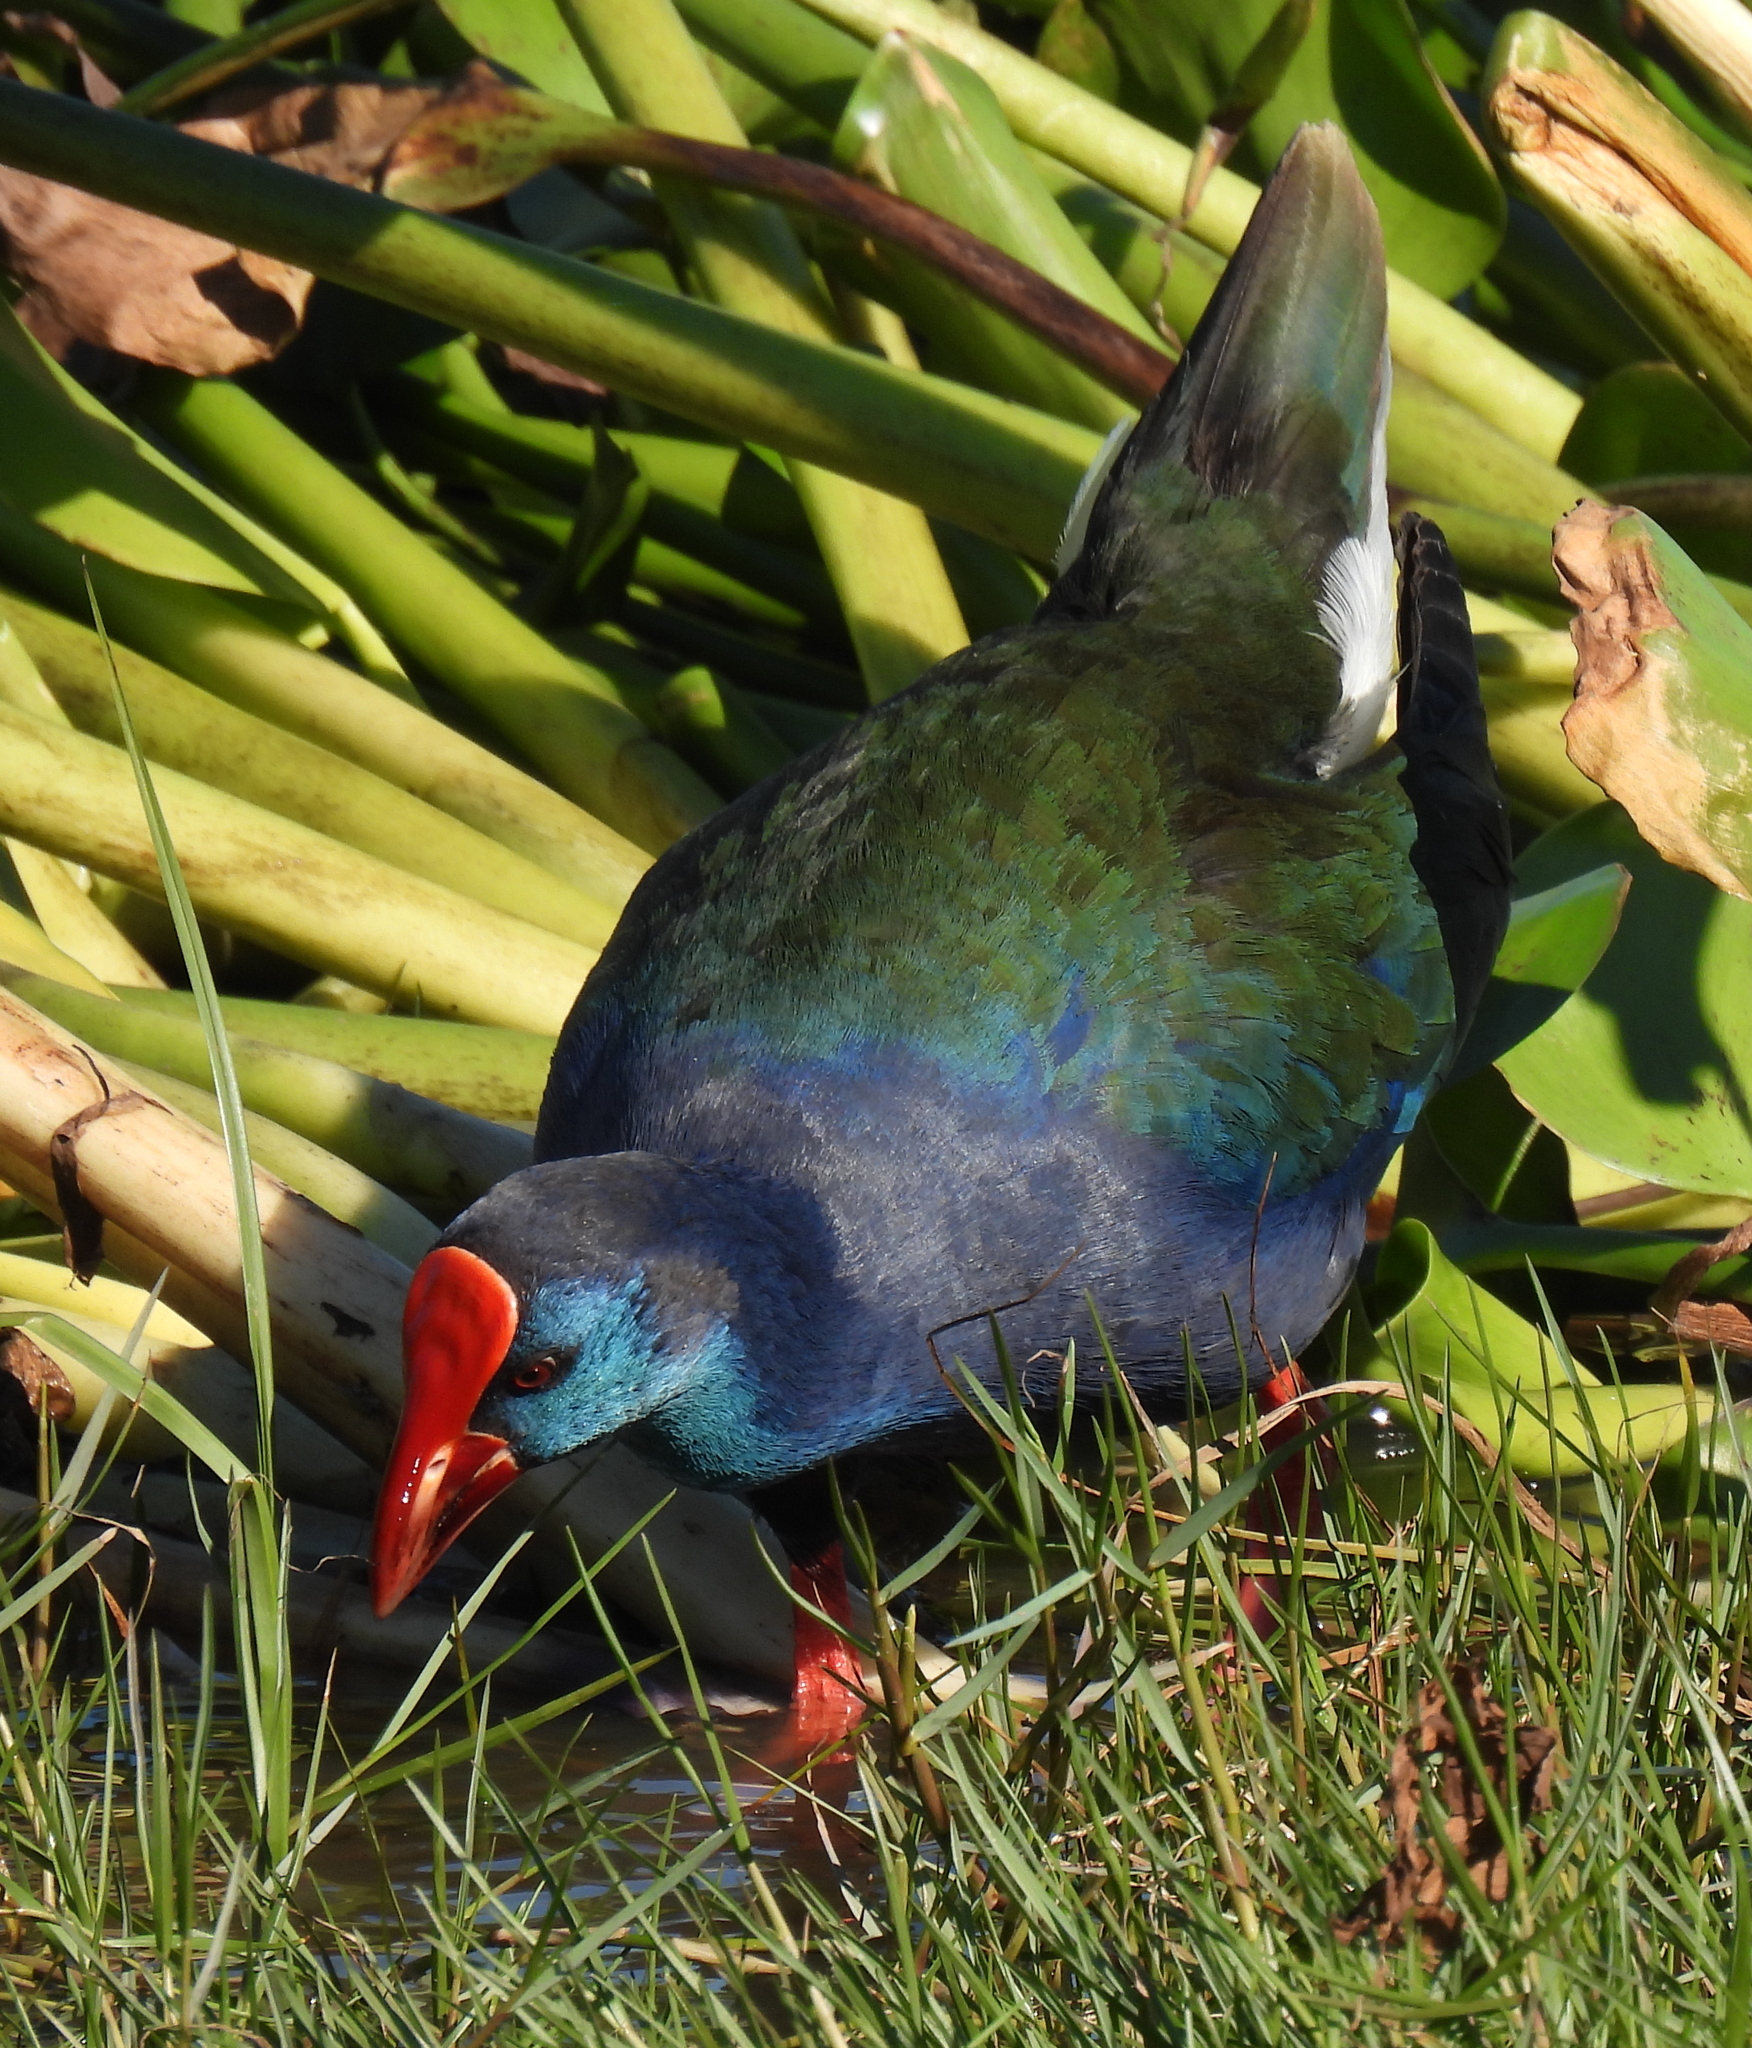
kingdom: Animalia
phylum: Chordata
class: Aves
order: Gruiformes
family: Rallidae
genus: Porphyrio
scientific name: Porphyrio porphyrio
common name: Purple swamphen
